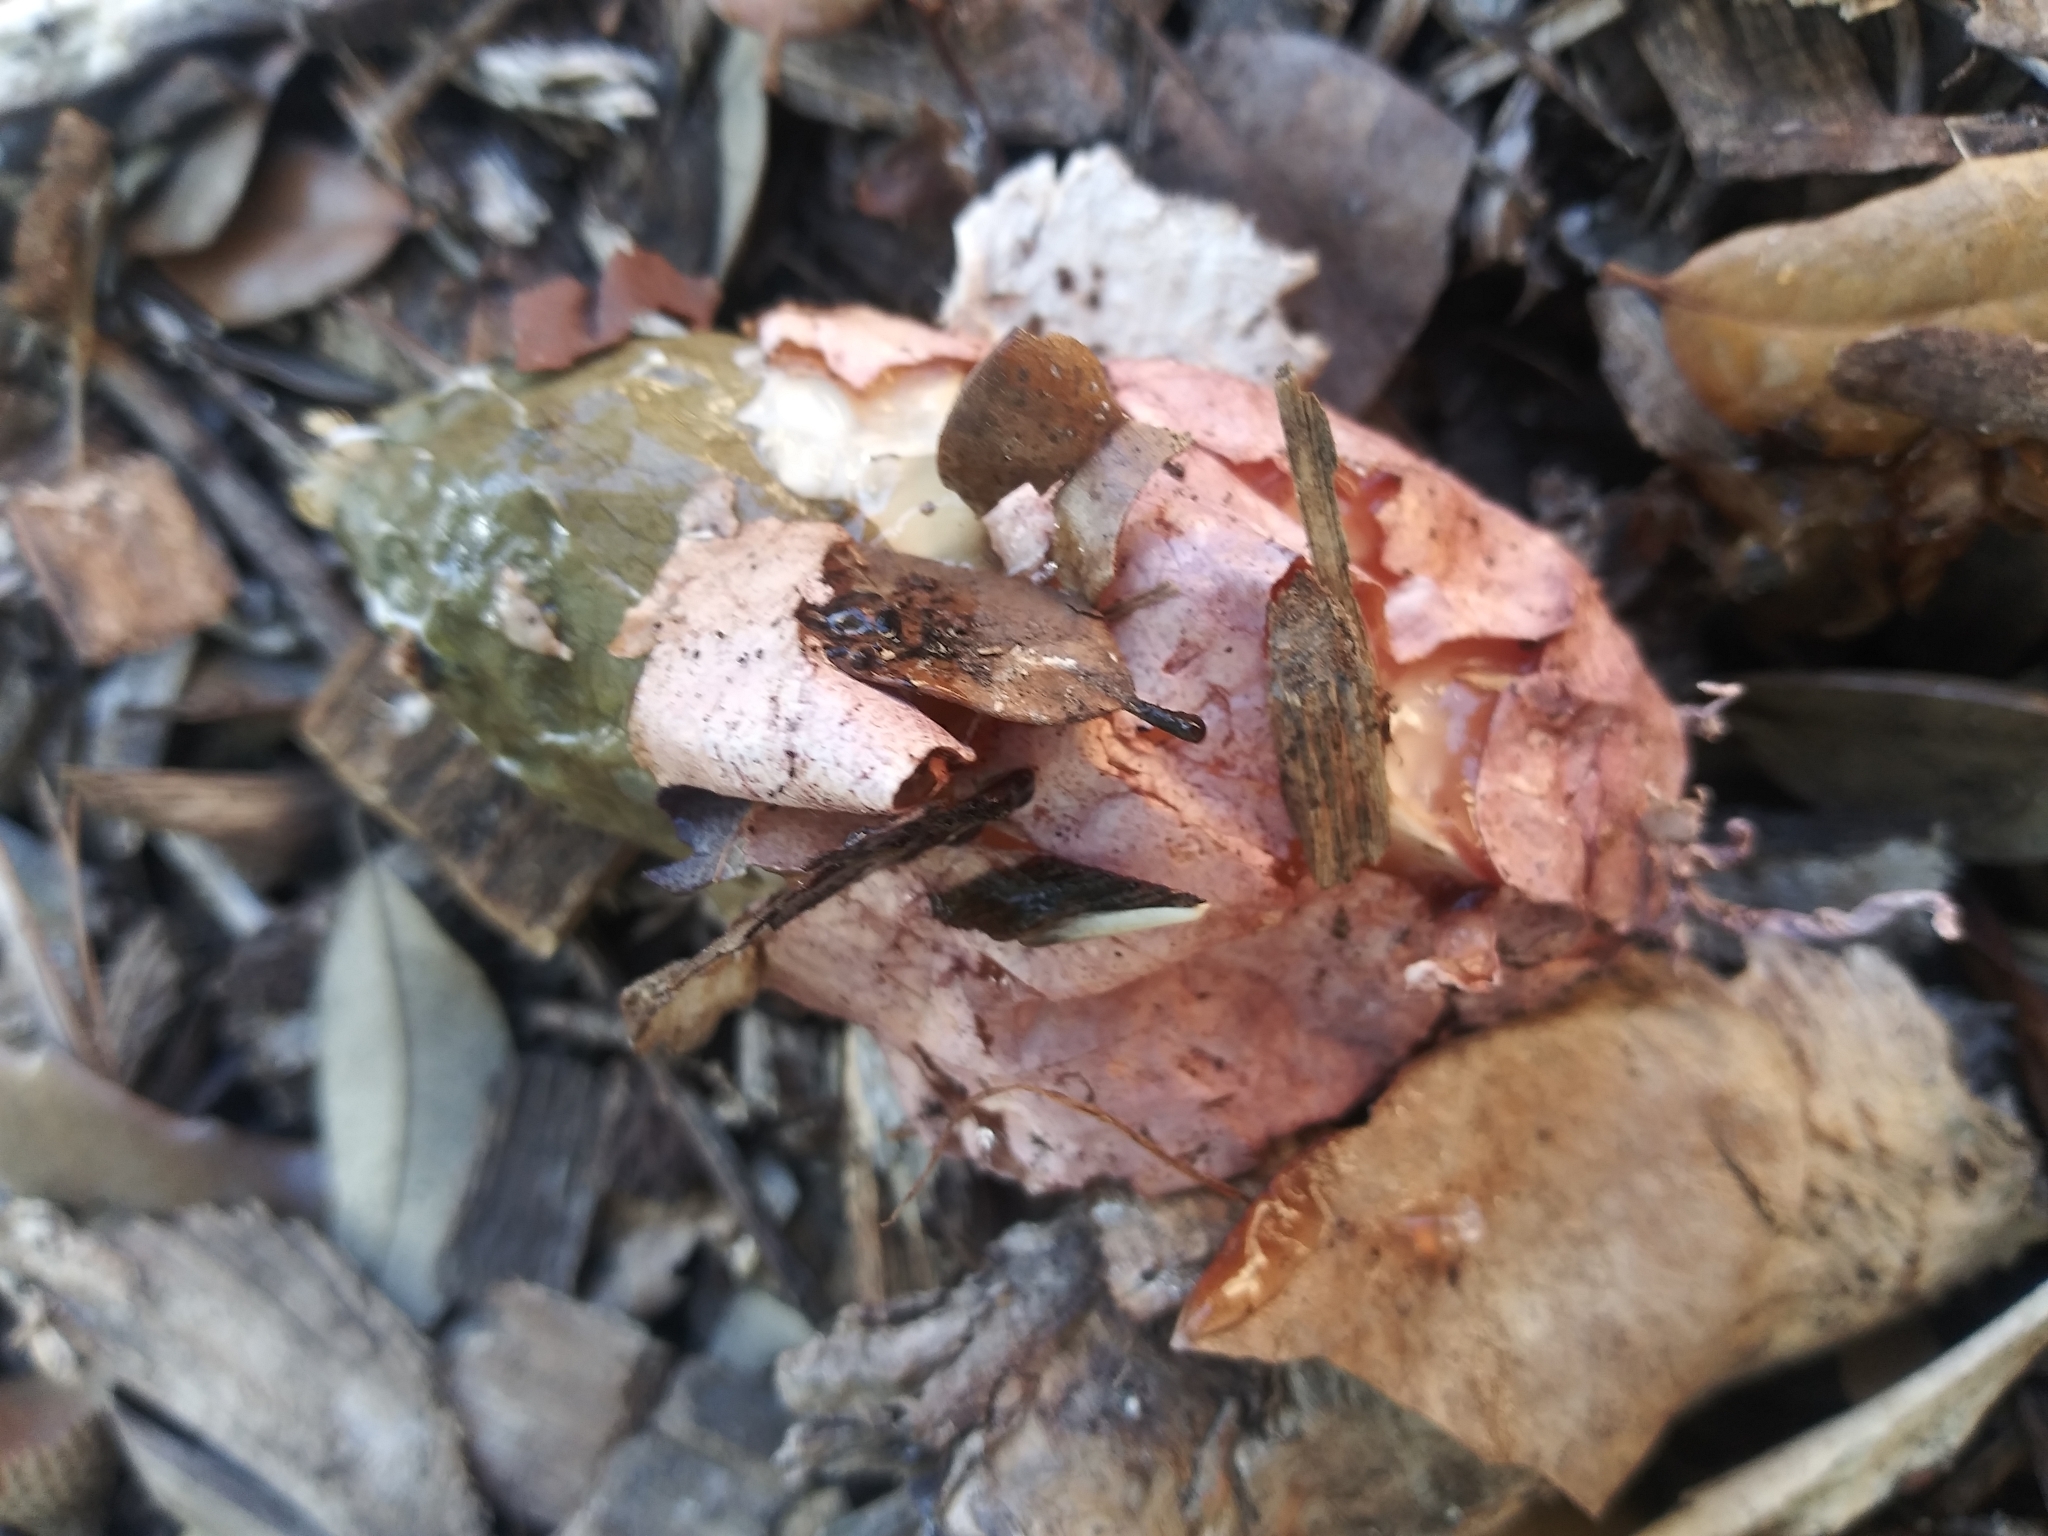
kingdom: Fungi
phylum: Basidiomycota
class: Agaricomycetes
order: Phallales
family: Phallaceae
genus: Phallus
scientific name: Phallus hadriani
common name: Sand stinkhorn
